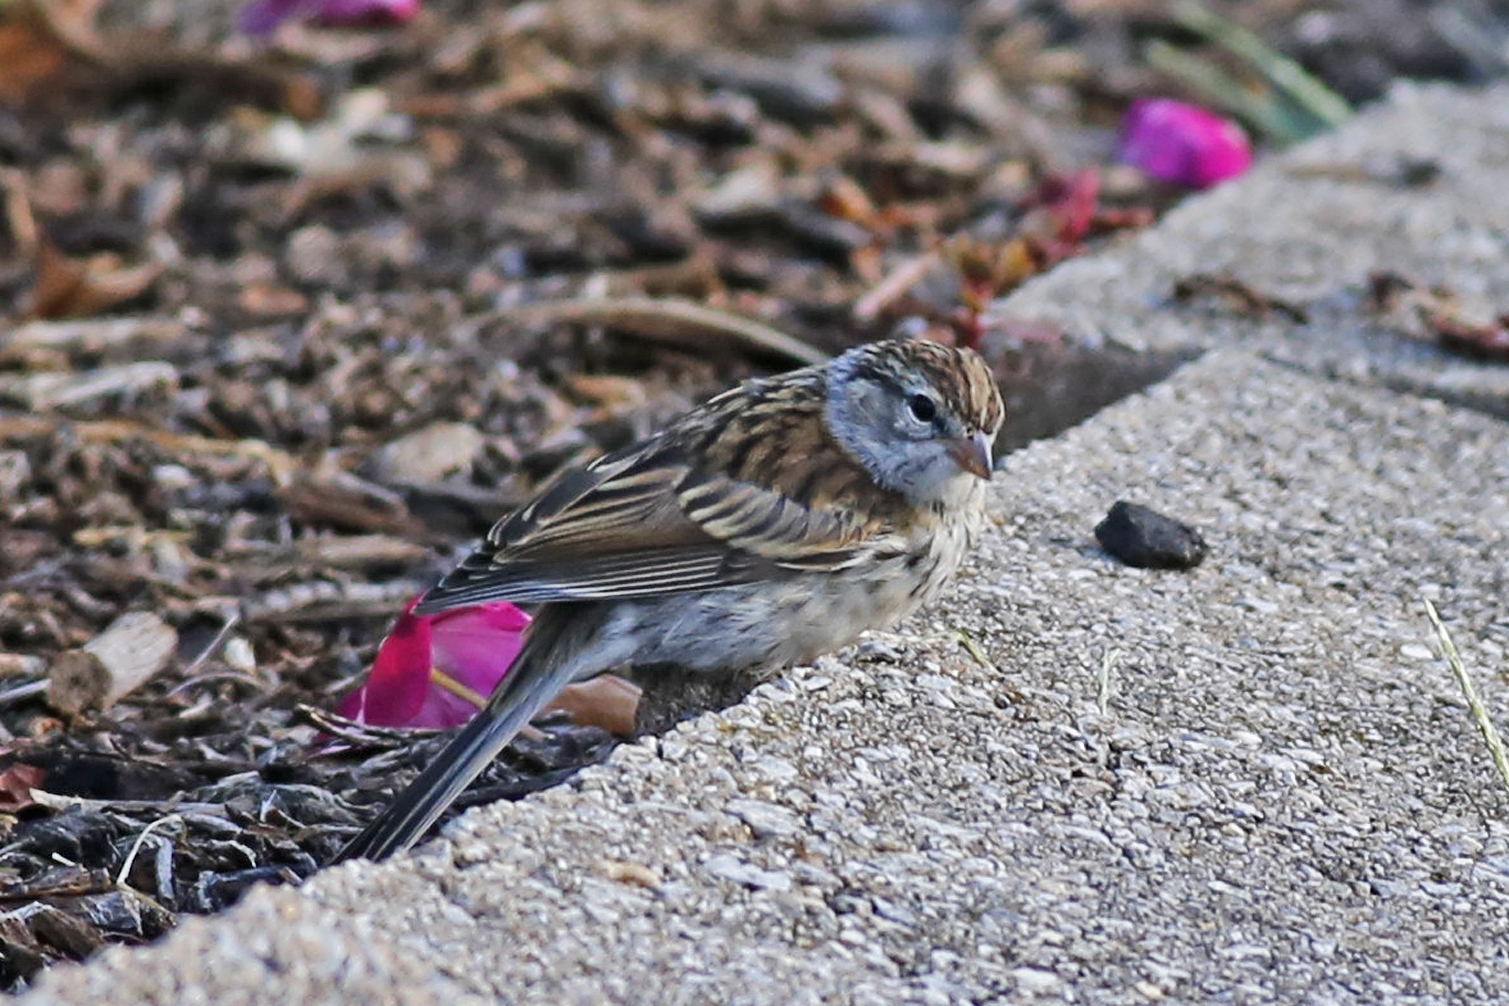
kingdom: Animalia
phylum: Chordata
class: Aves
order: Passeriformes
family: Passerellidae
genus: Spizella
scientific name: Spizella passerina
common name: Chipping sparrow
